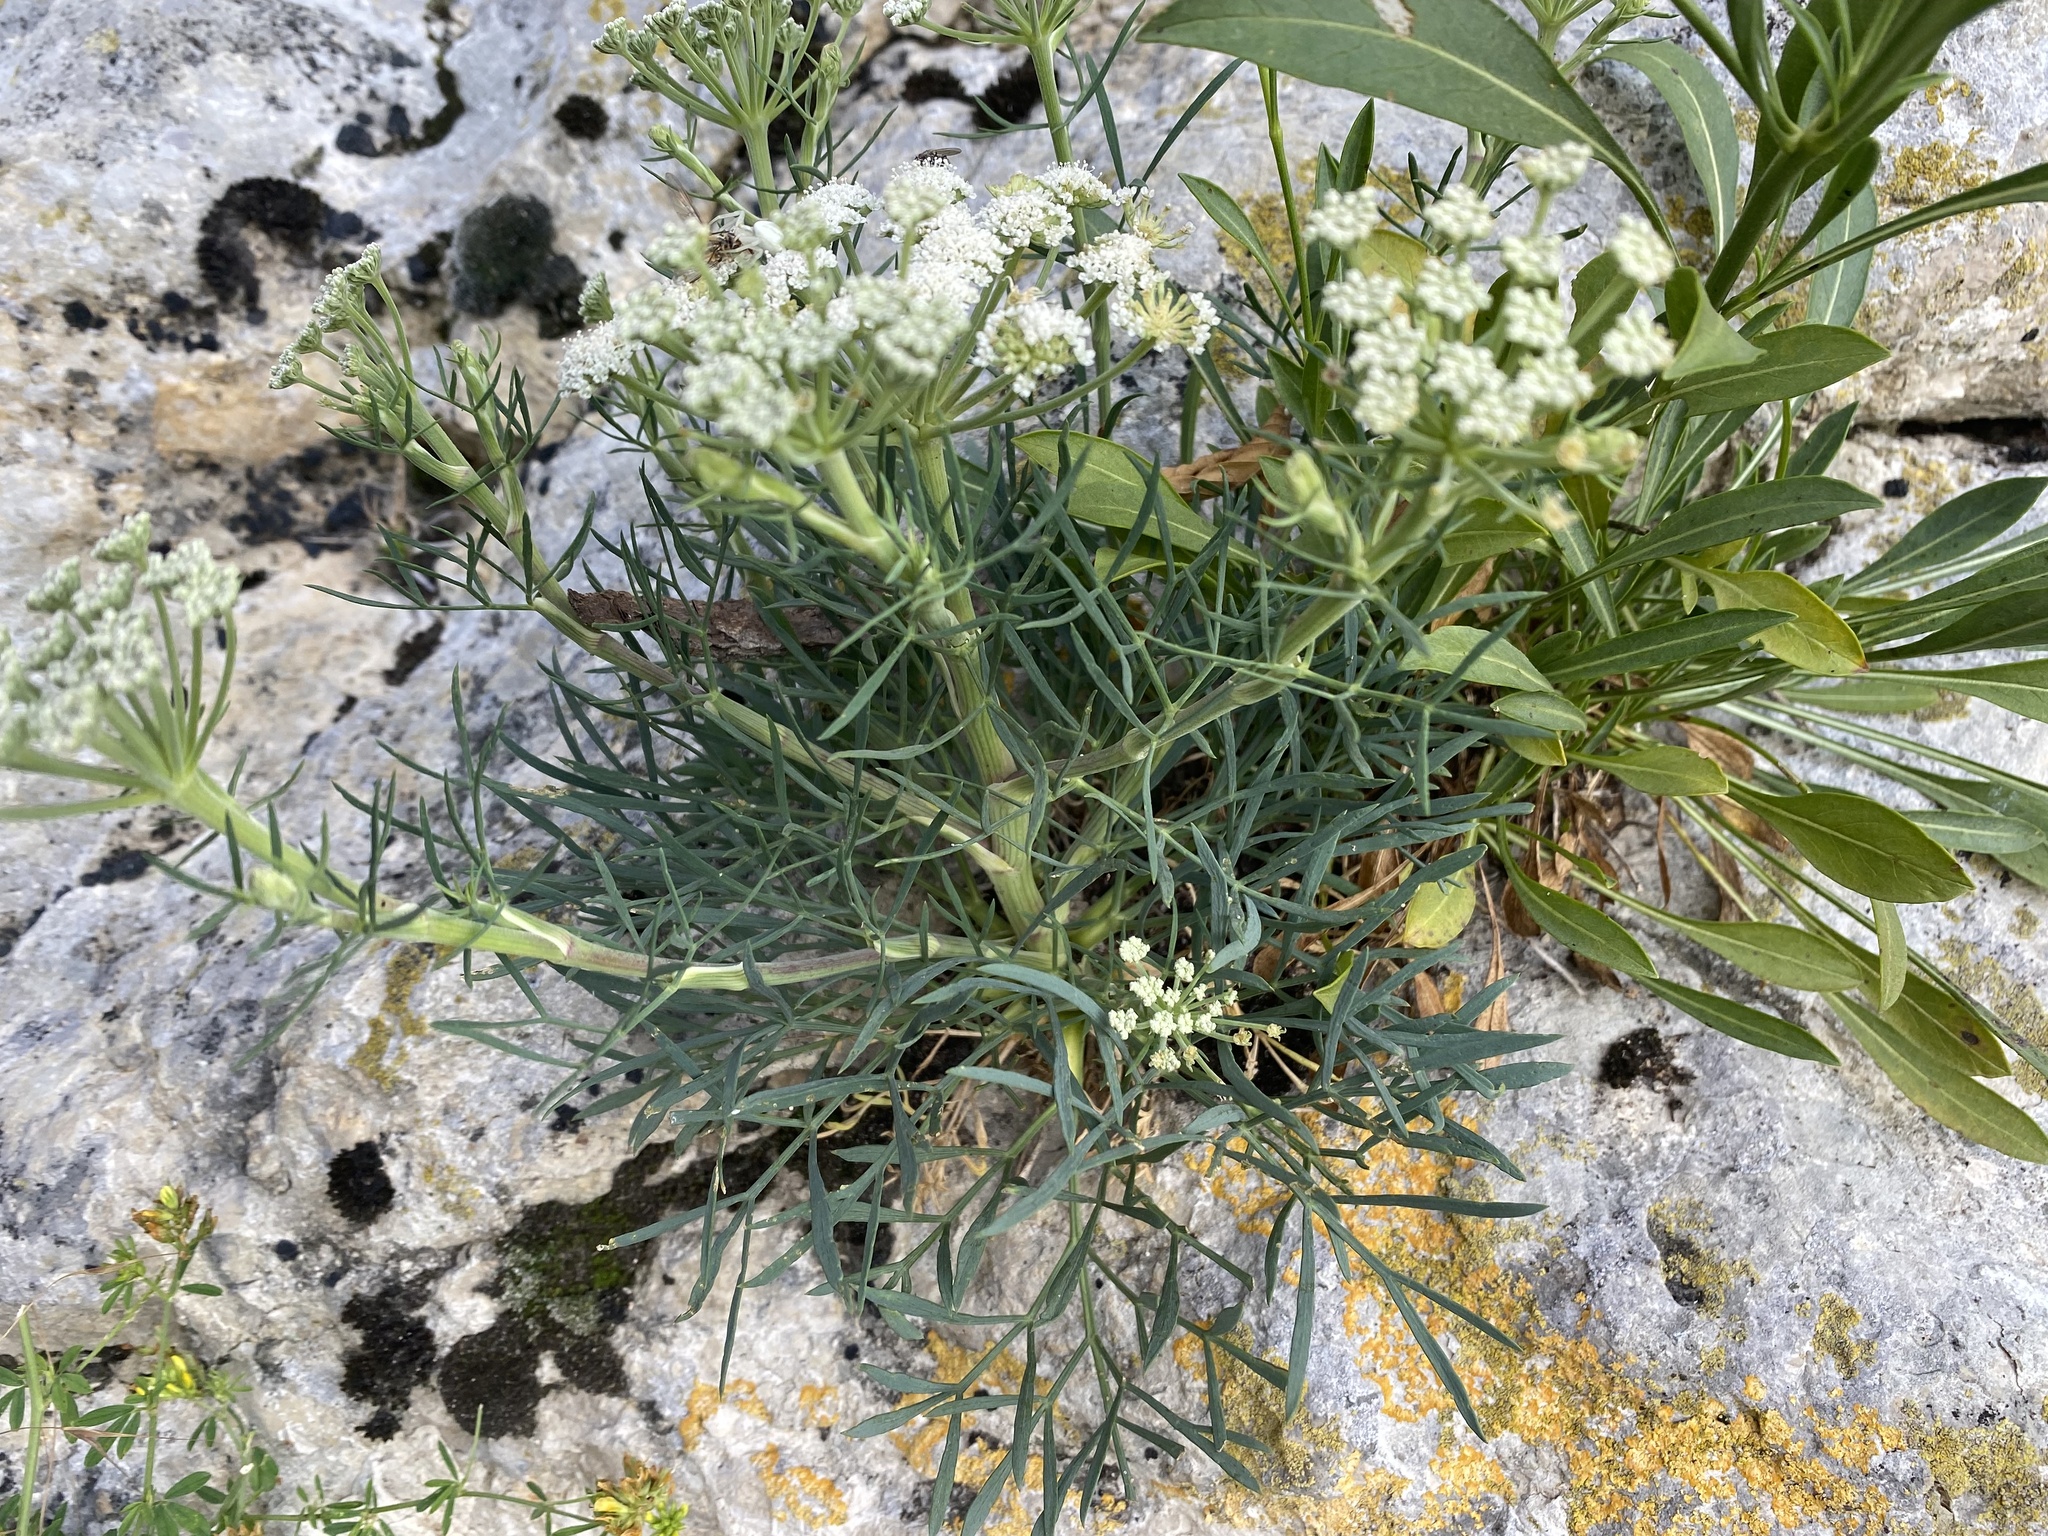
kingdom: Plantae
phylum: Tracheophyta
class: Magnoliopsida
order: Apiales
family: Apiaceae
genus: Seseli
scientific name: Seseli arenarium
